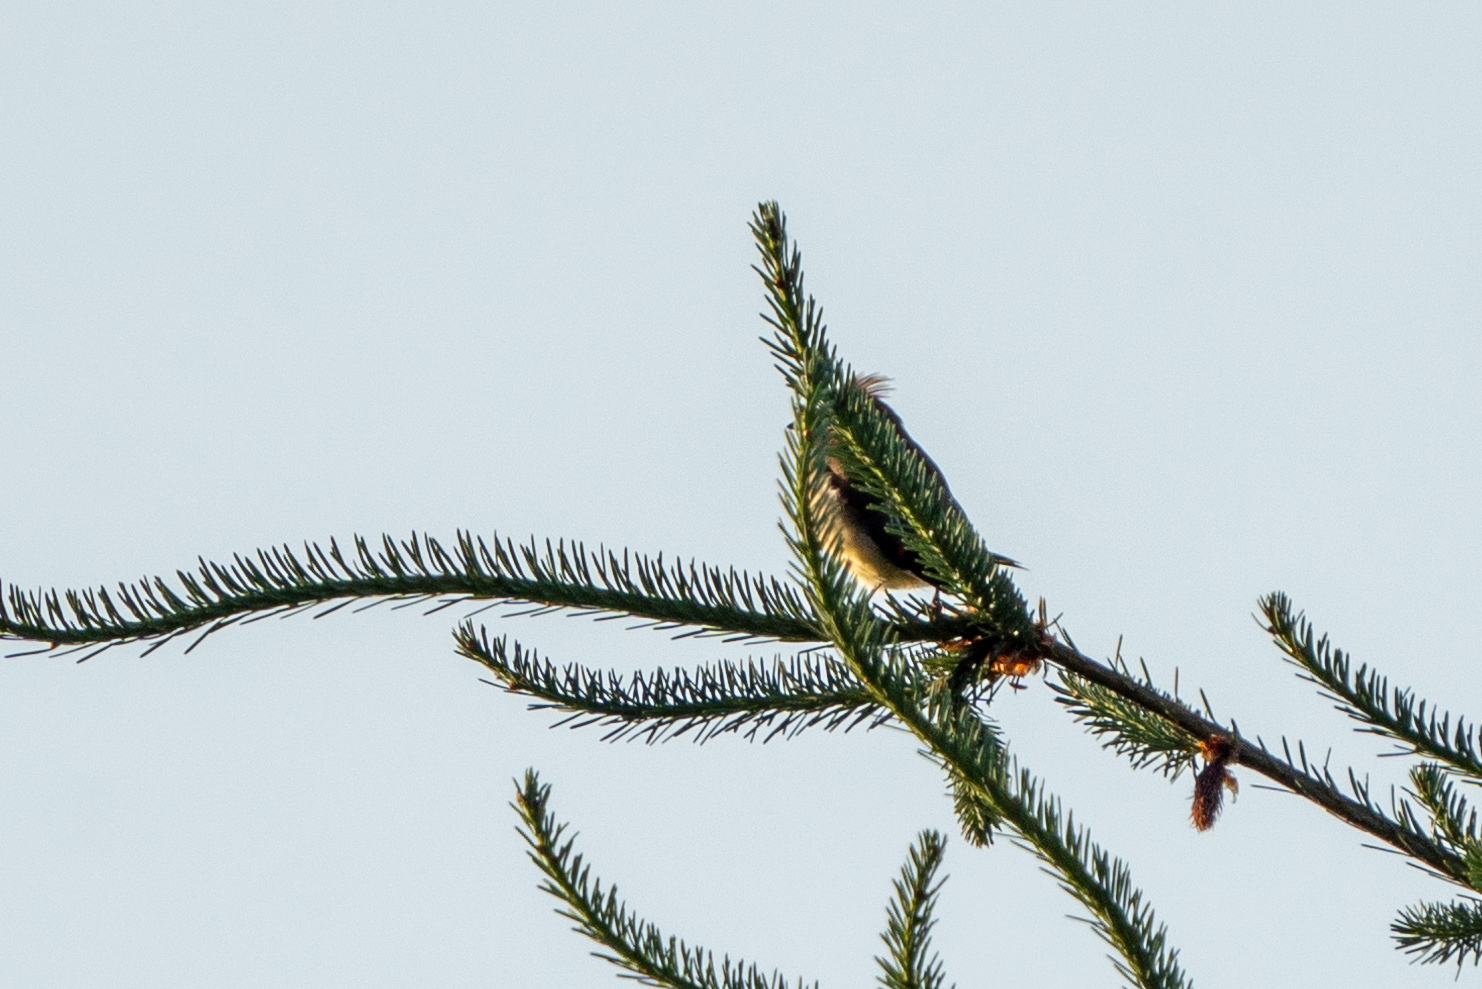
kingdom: Animalia
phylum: Chordata
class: Aves
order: Passeriformes
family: Bombycillidae
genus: Bombycilla
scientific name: Bombycilla cedrorum
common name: Cedar waxwing
